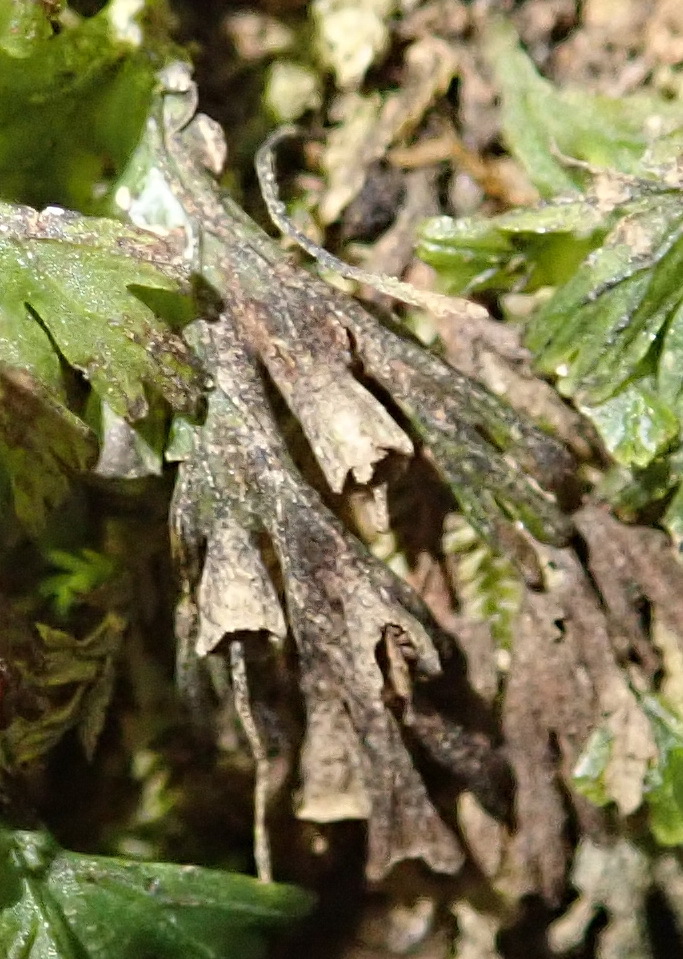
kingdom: Plantae
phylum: Tracheophyta
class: Polypodiopsida
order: Hymenophyllales
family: Hymenophyllaceae
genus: Crepidomanes
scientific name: Crepidomanes melanotrichum
